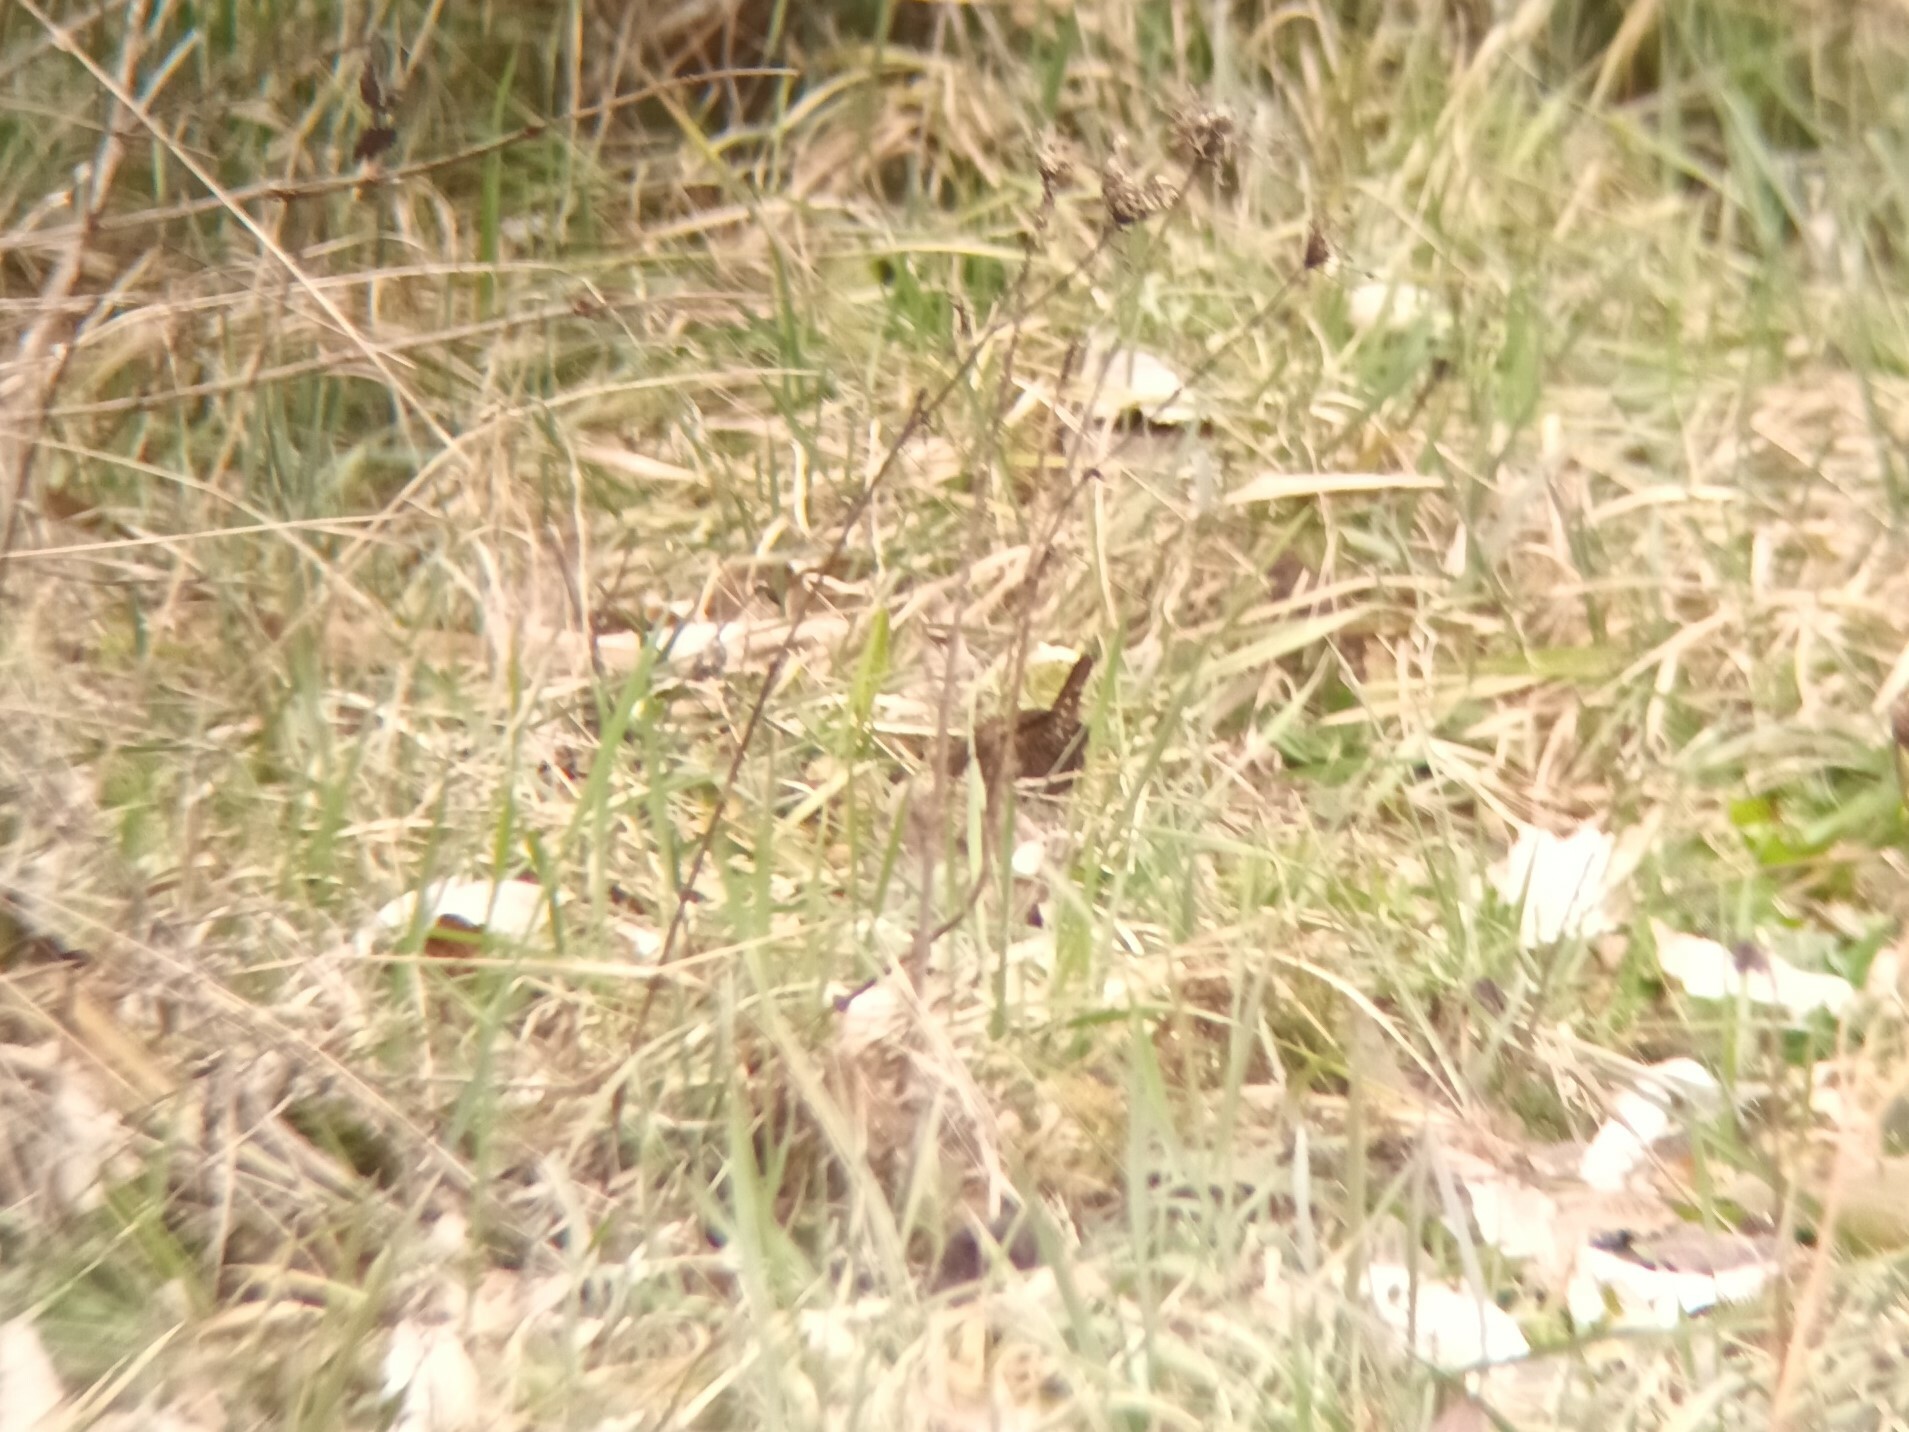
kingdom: Animalia
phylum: Chordata
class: Aves
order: Passeriformes
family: Troglodytidae
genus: Troglodytes
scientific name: Troglodytes troglodytes
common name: Eurasian wren
